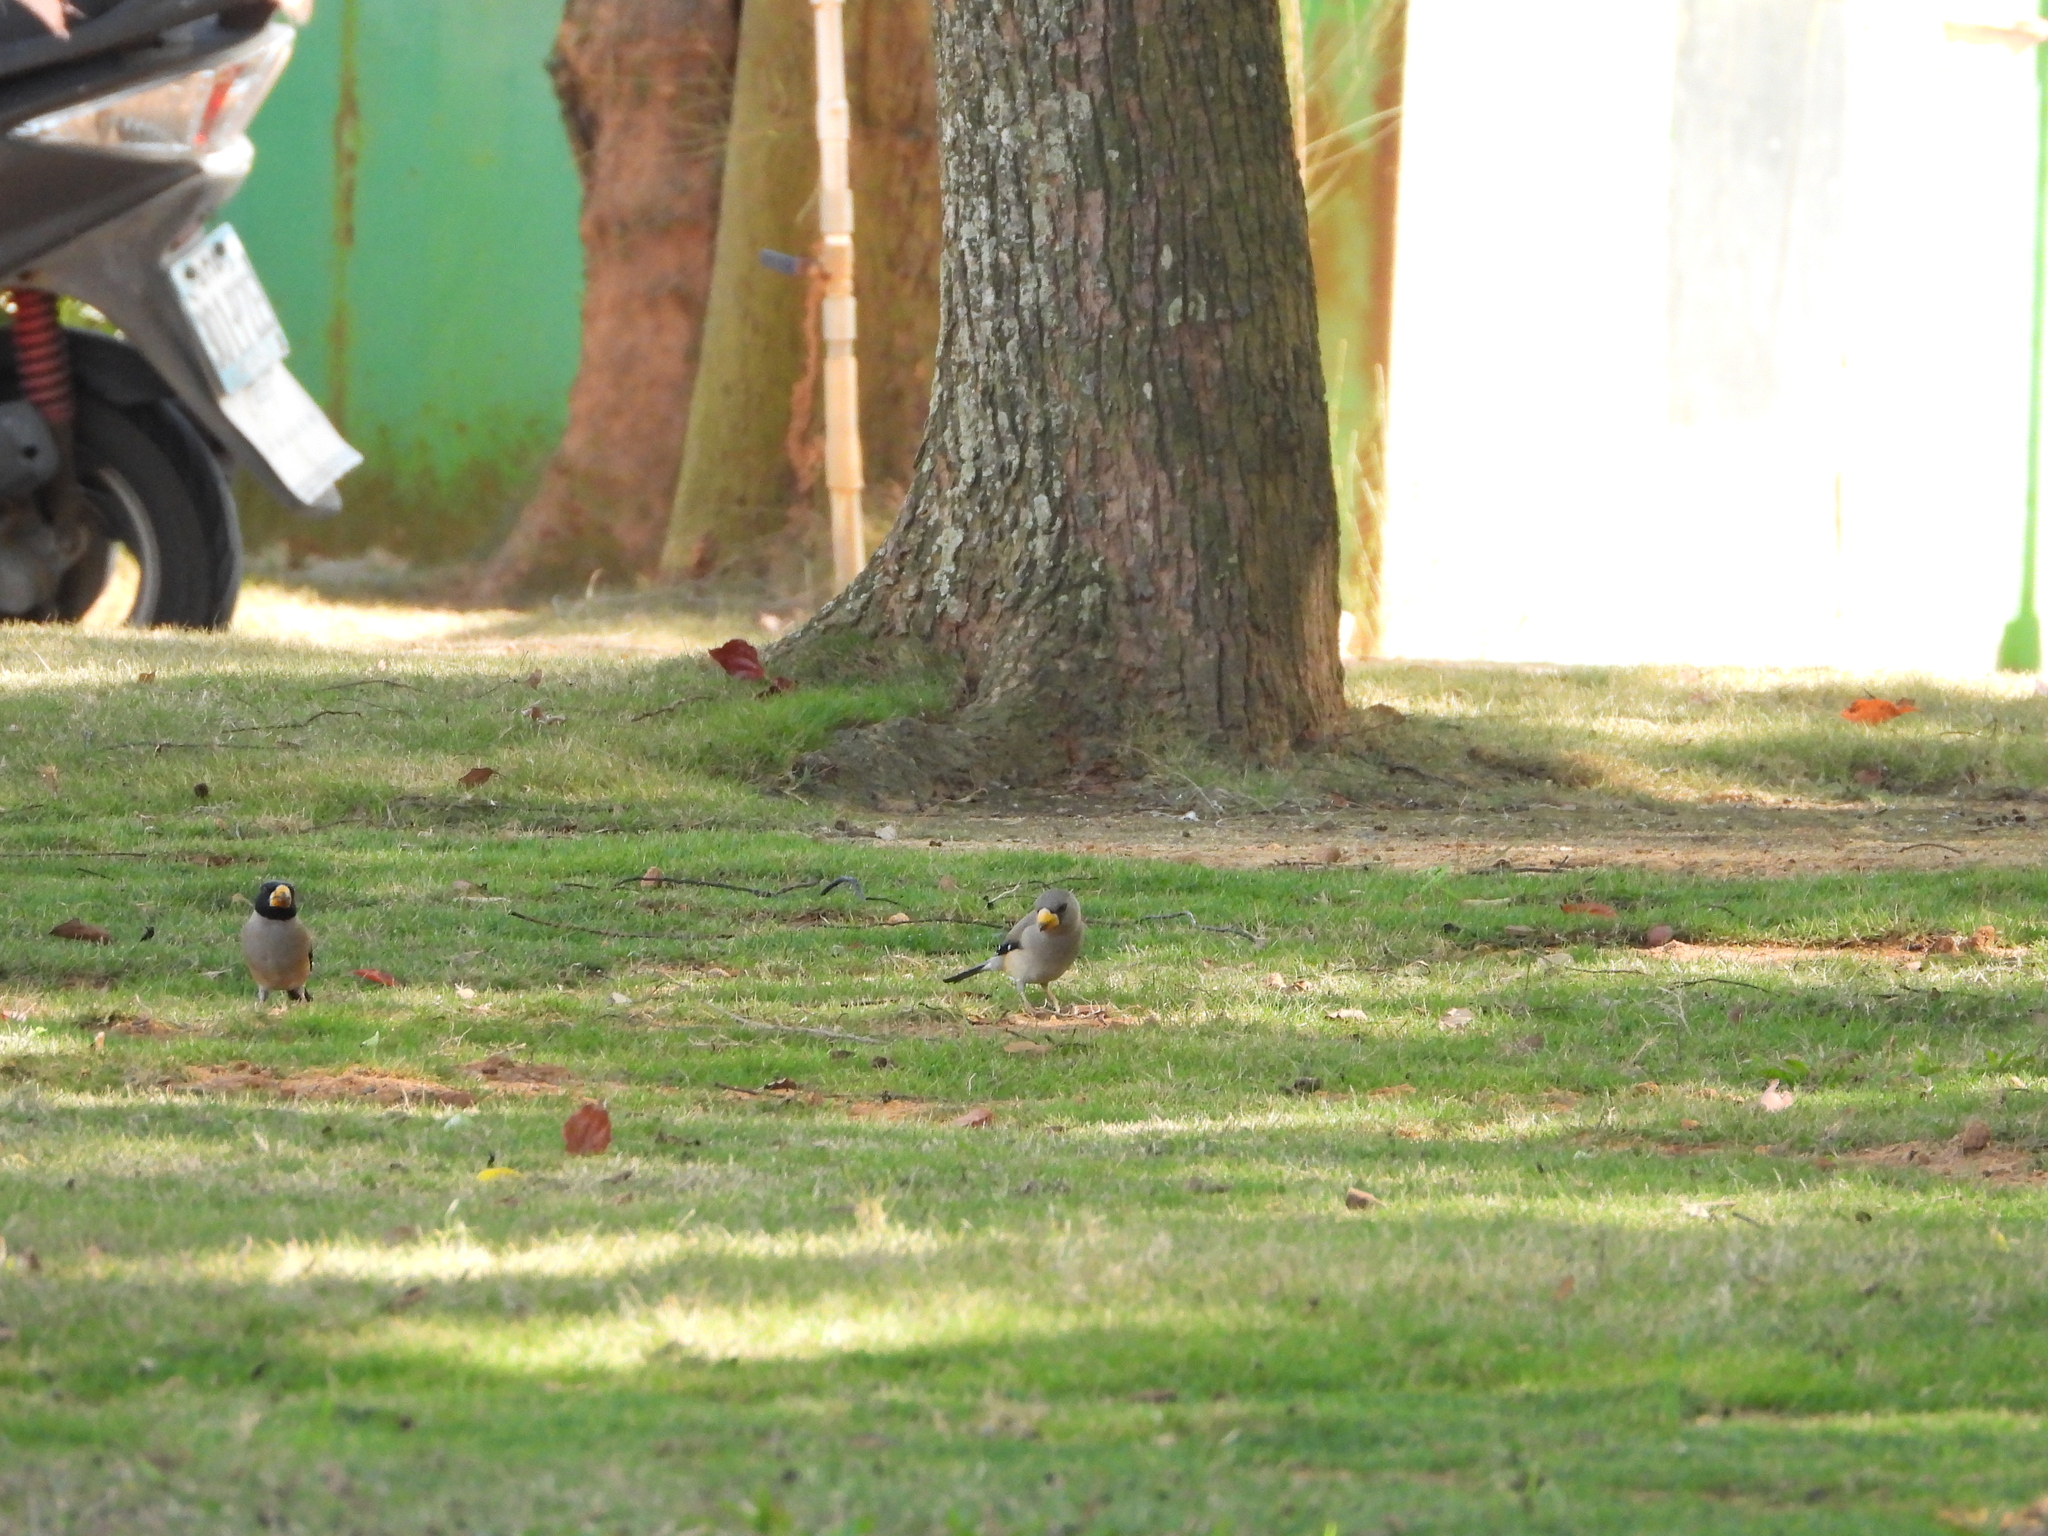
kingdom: Animalia
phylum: Chordata
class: Aves
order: Passeriformes
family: Fringillidae
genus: Eophona
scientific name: Eophona migratoria
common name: Yellow-billed grosbeak
